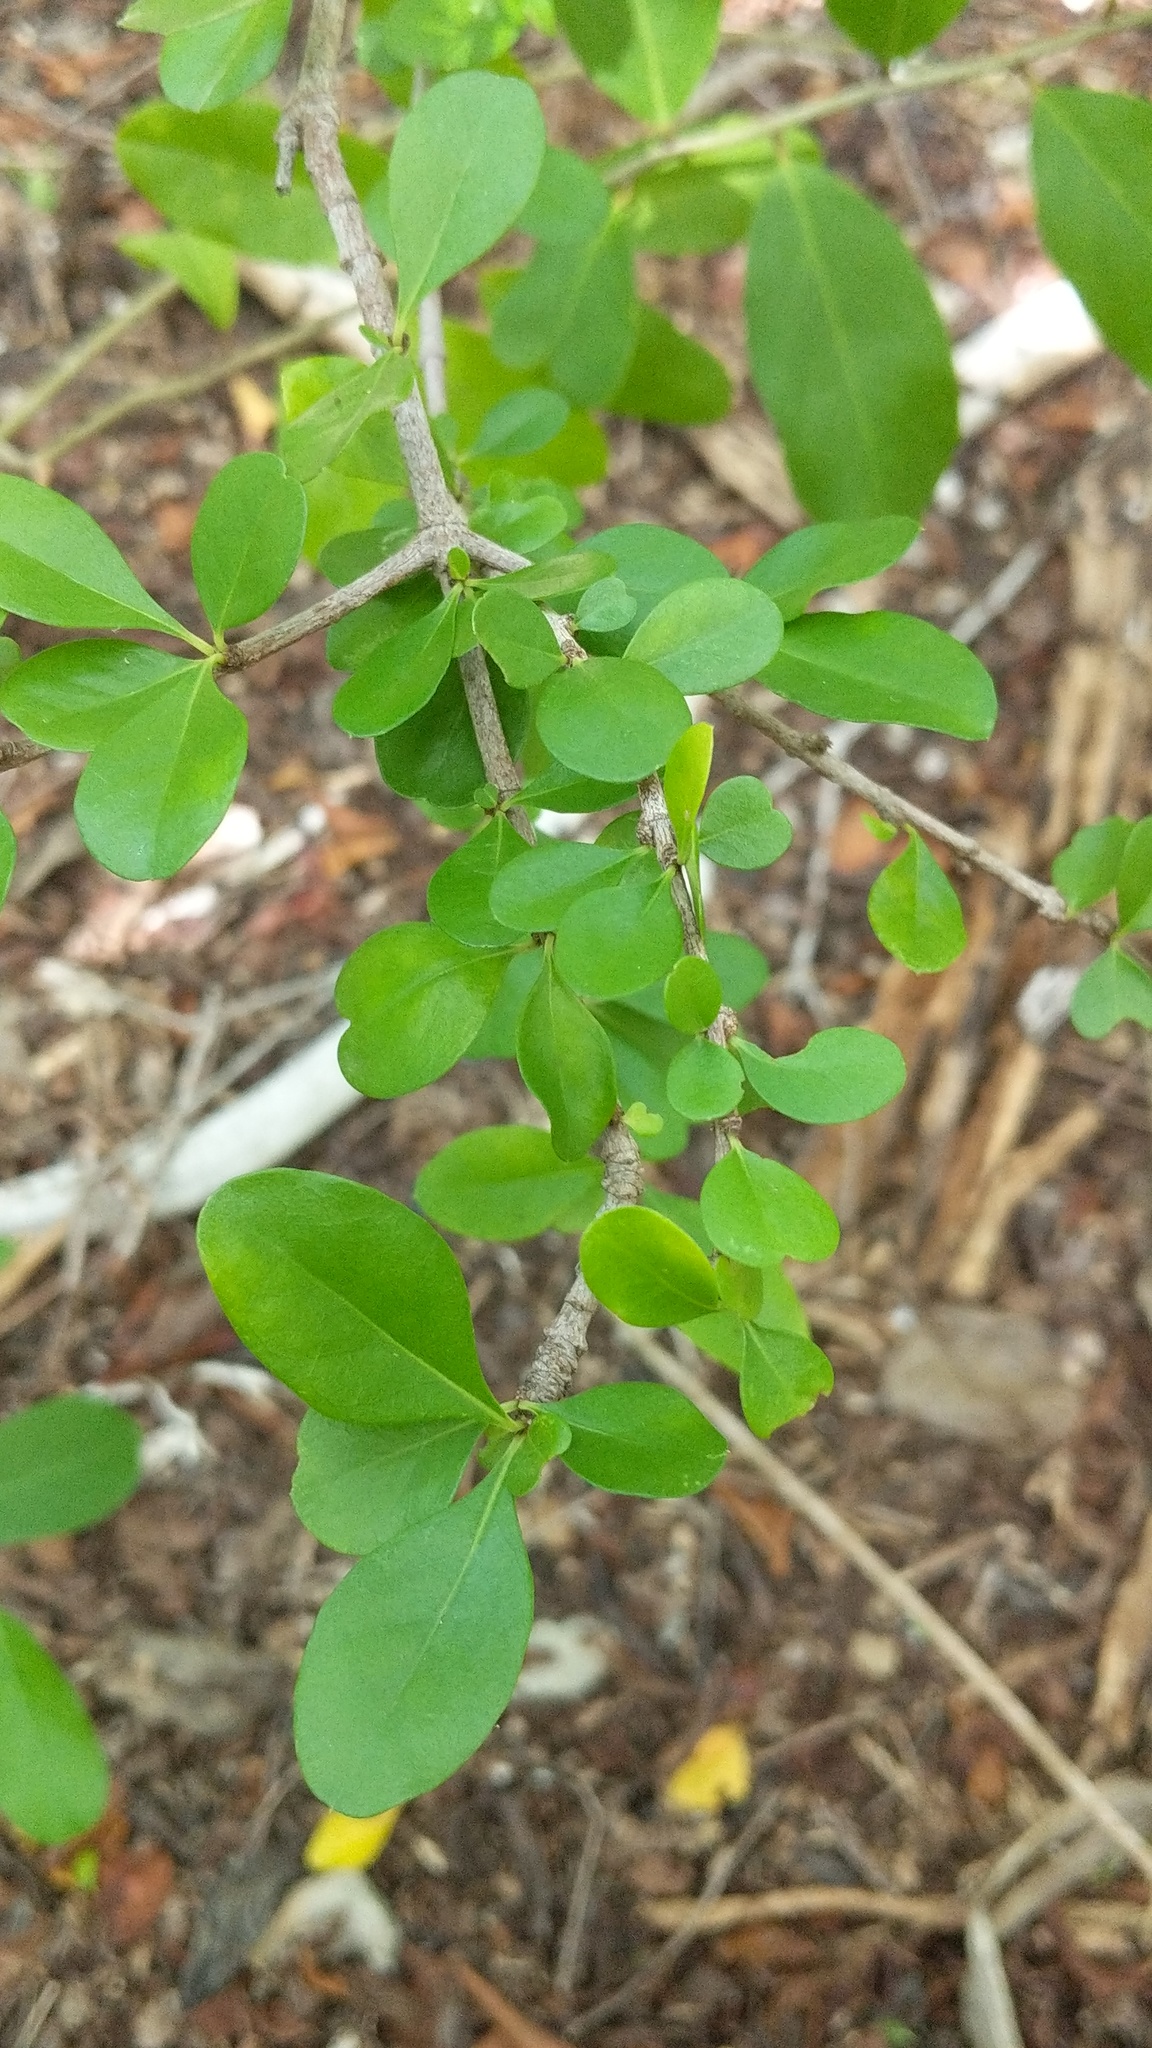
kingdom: Plantae
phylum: Tracheophyta
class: Magnoliopsida
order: Gentianales
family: Rubiaceae
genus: Randia
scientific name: Randia aculeata
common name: Inkberry
